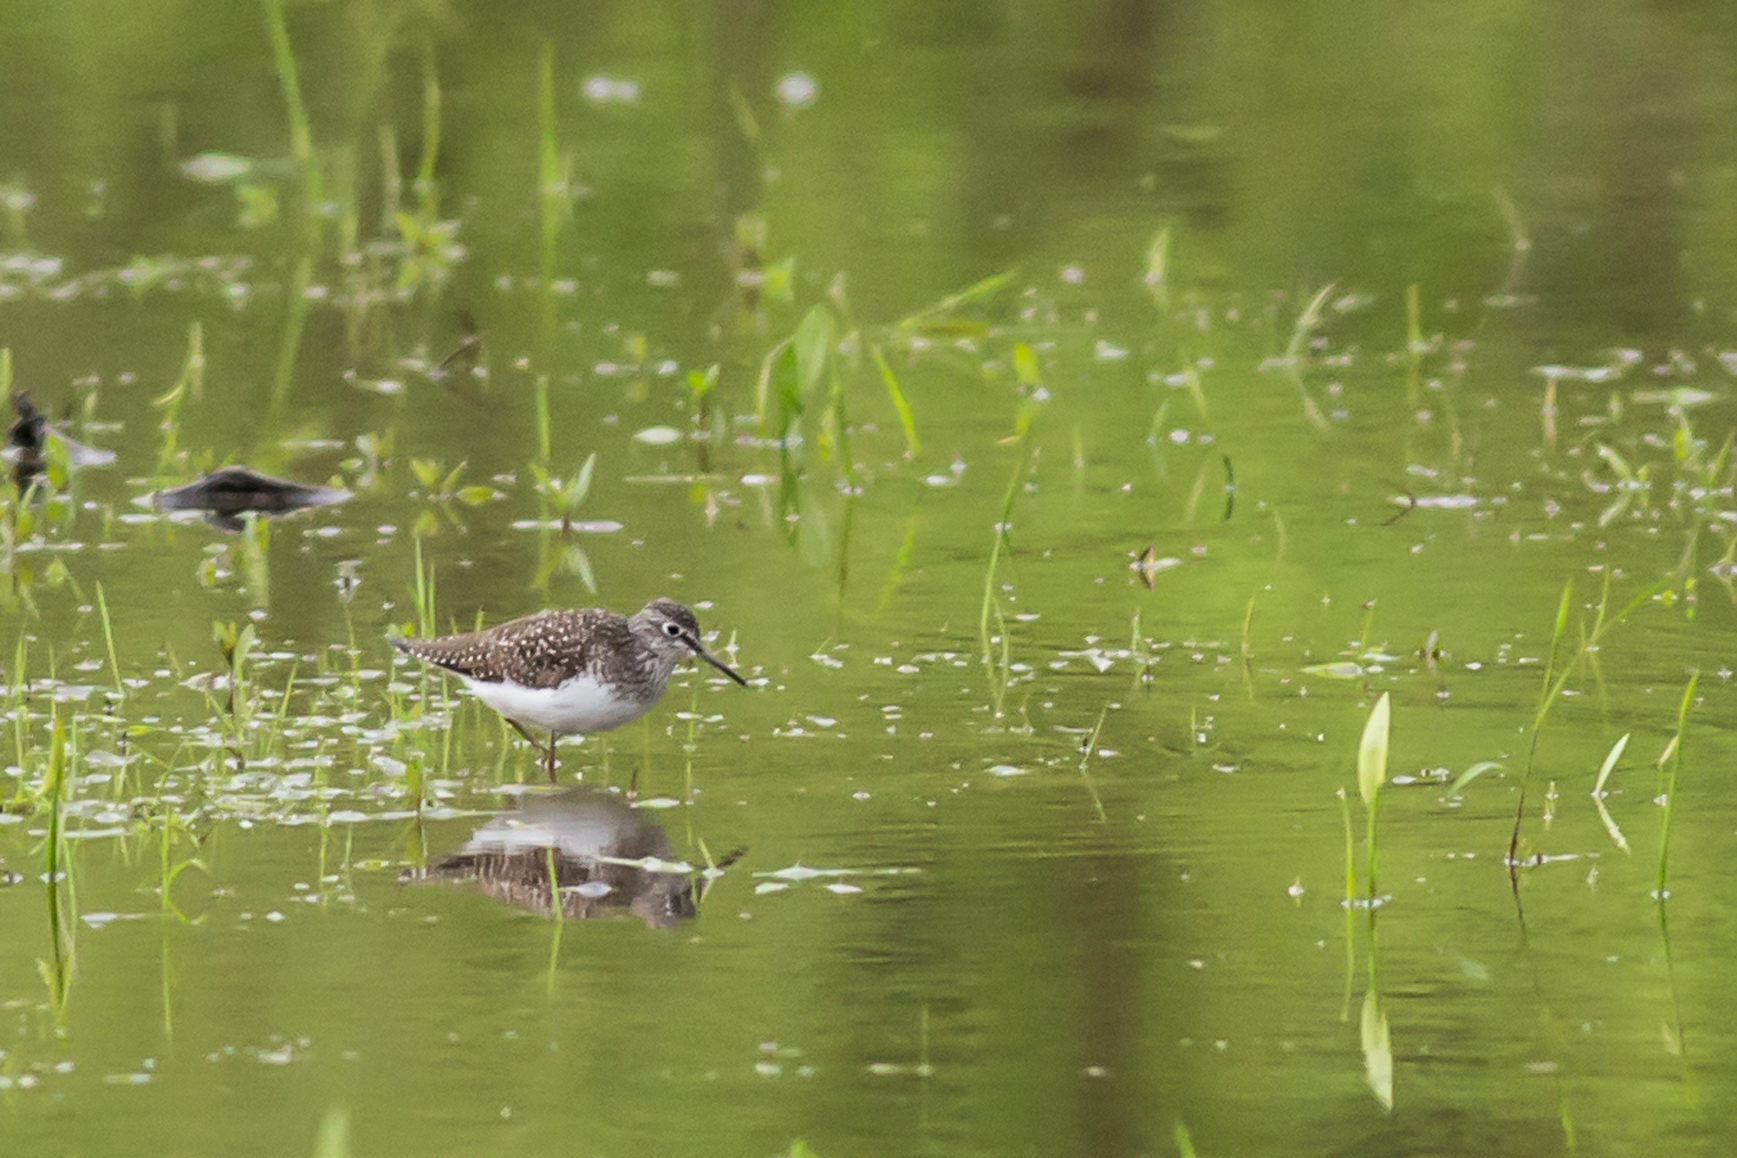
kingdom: Animalia
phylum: Chordata
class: Aves
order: Charadriiformes
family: Scolopacidae
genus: Tringa
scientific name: Tringa solitaria
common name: Solitary sandpiper
